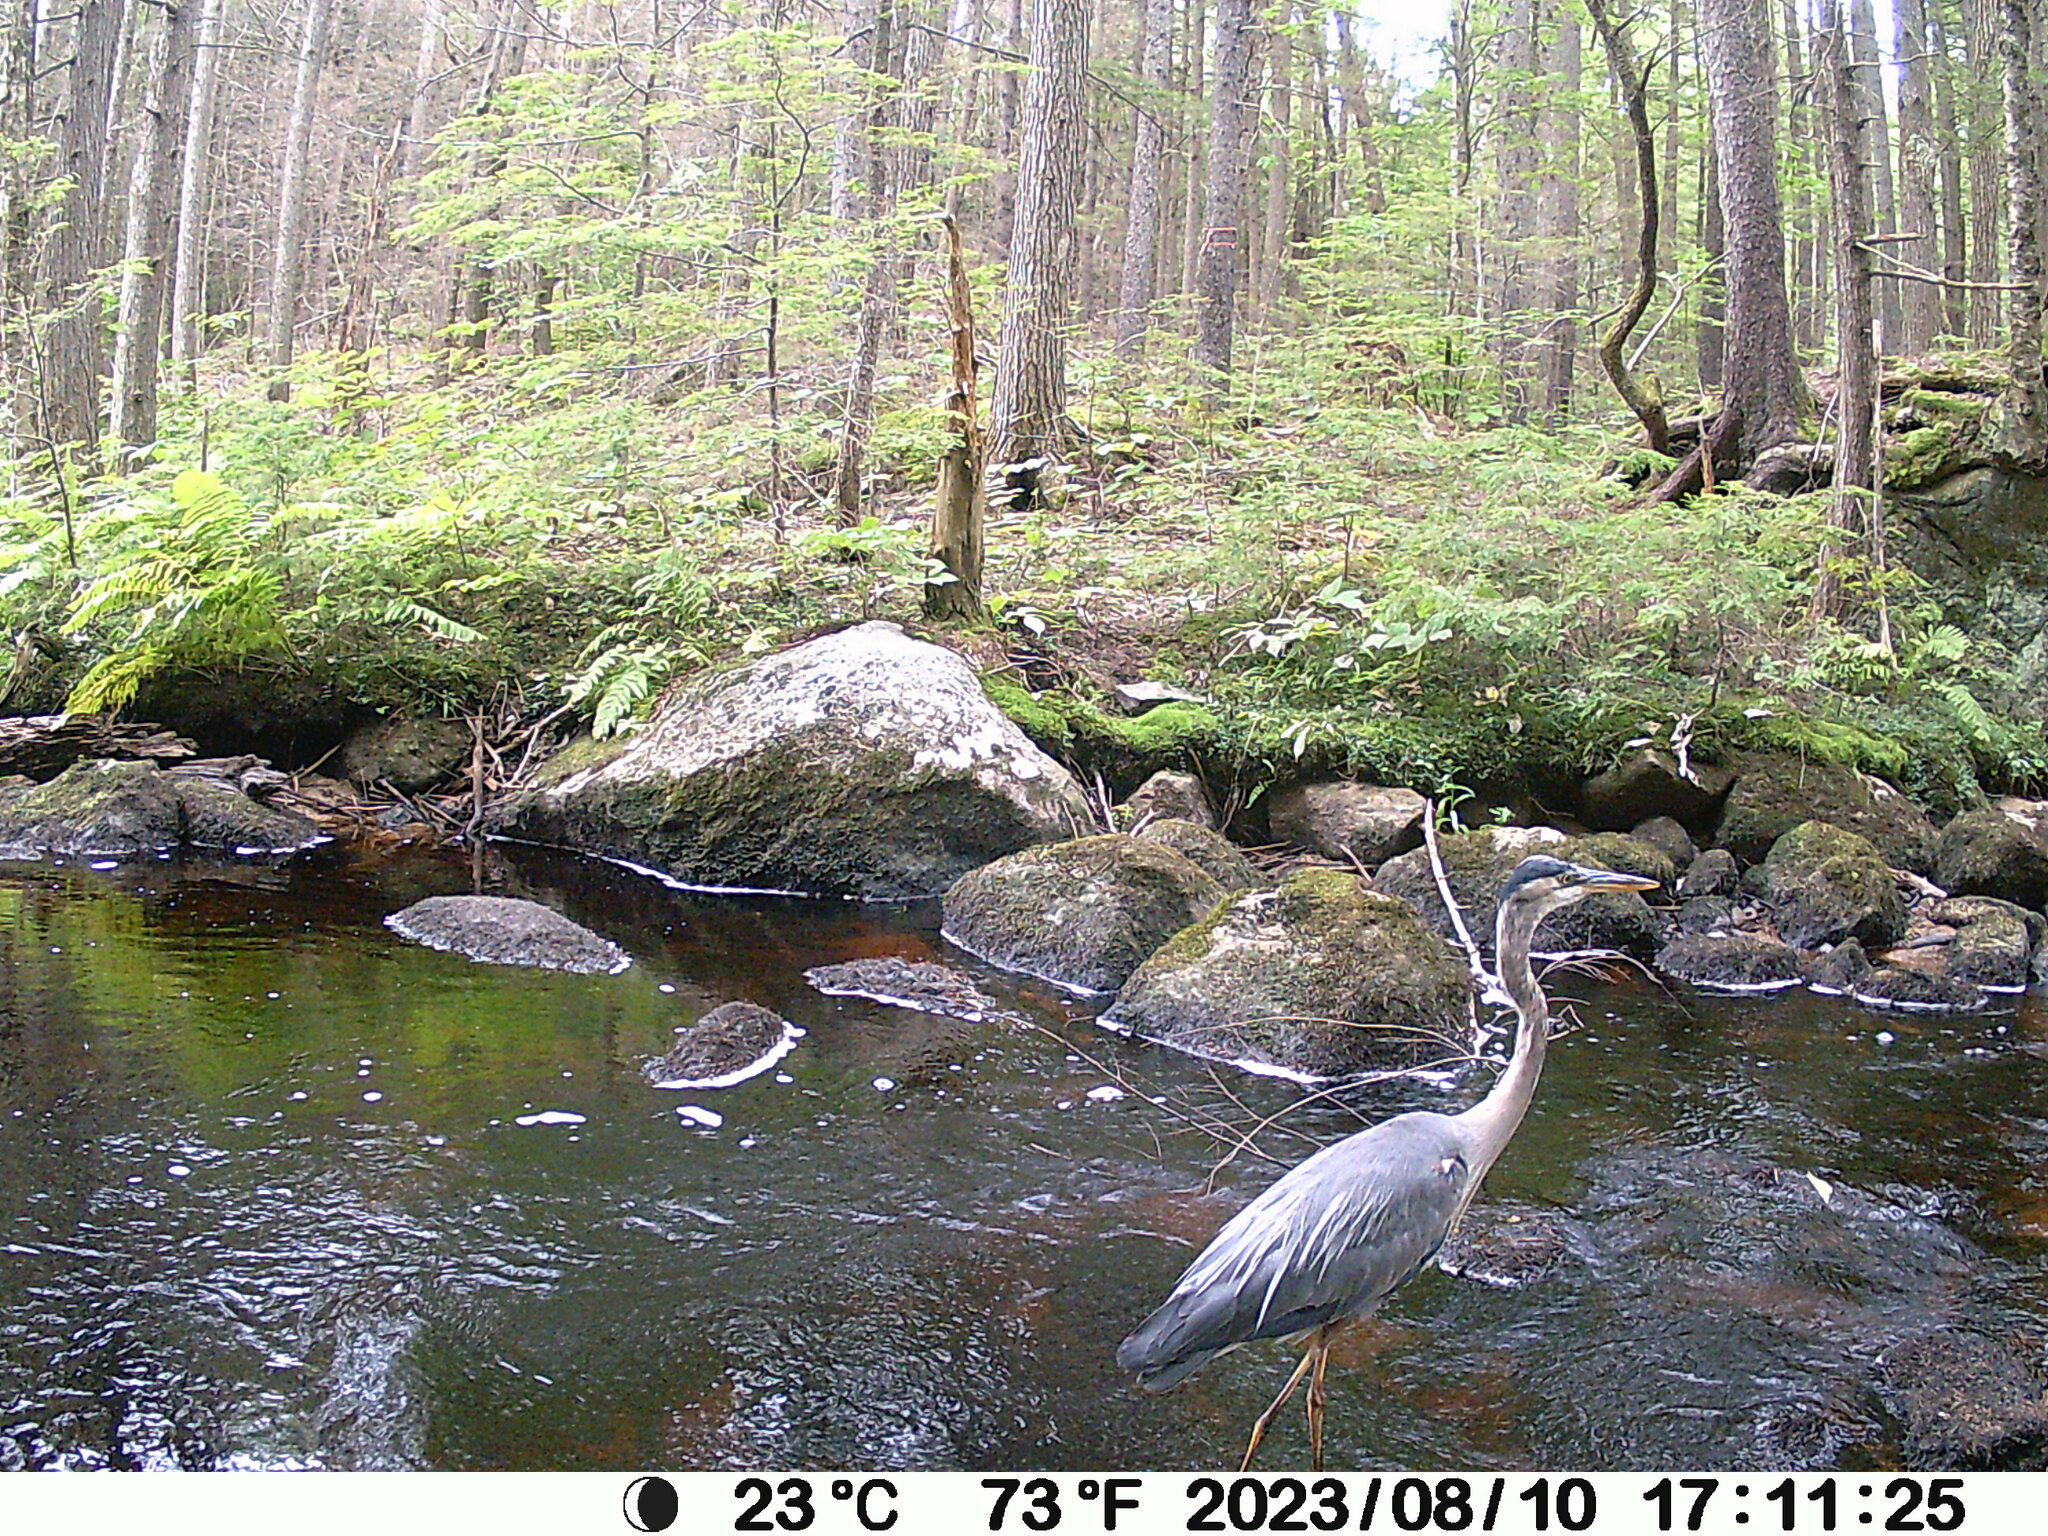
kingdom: Animalia
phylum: Chordata
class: Aves
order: Pelecaniformes
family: Ardeidae
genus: Ardea
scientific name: Ardea herodias
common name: Great blue heron
